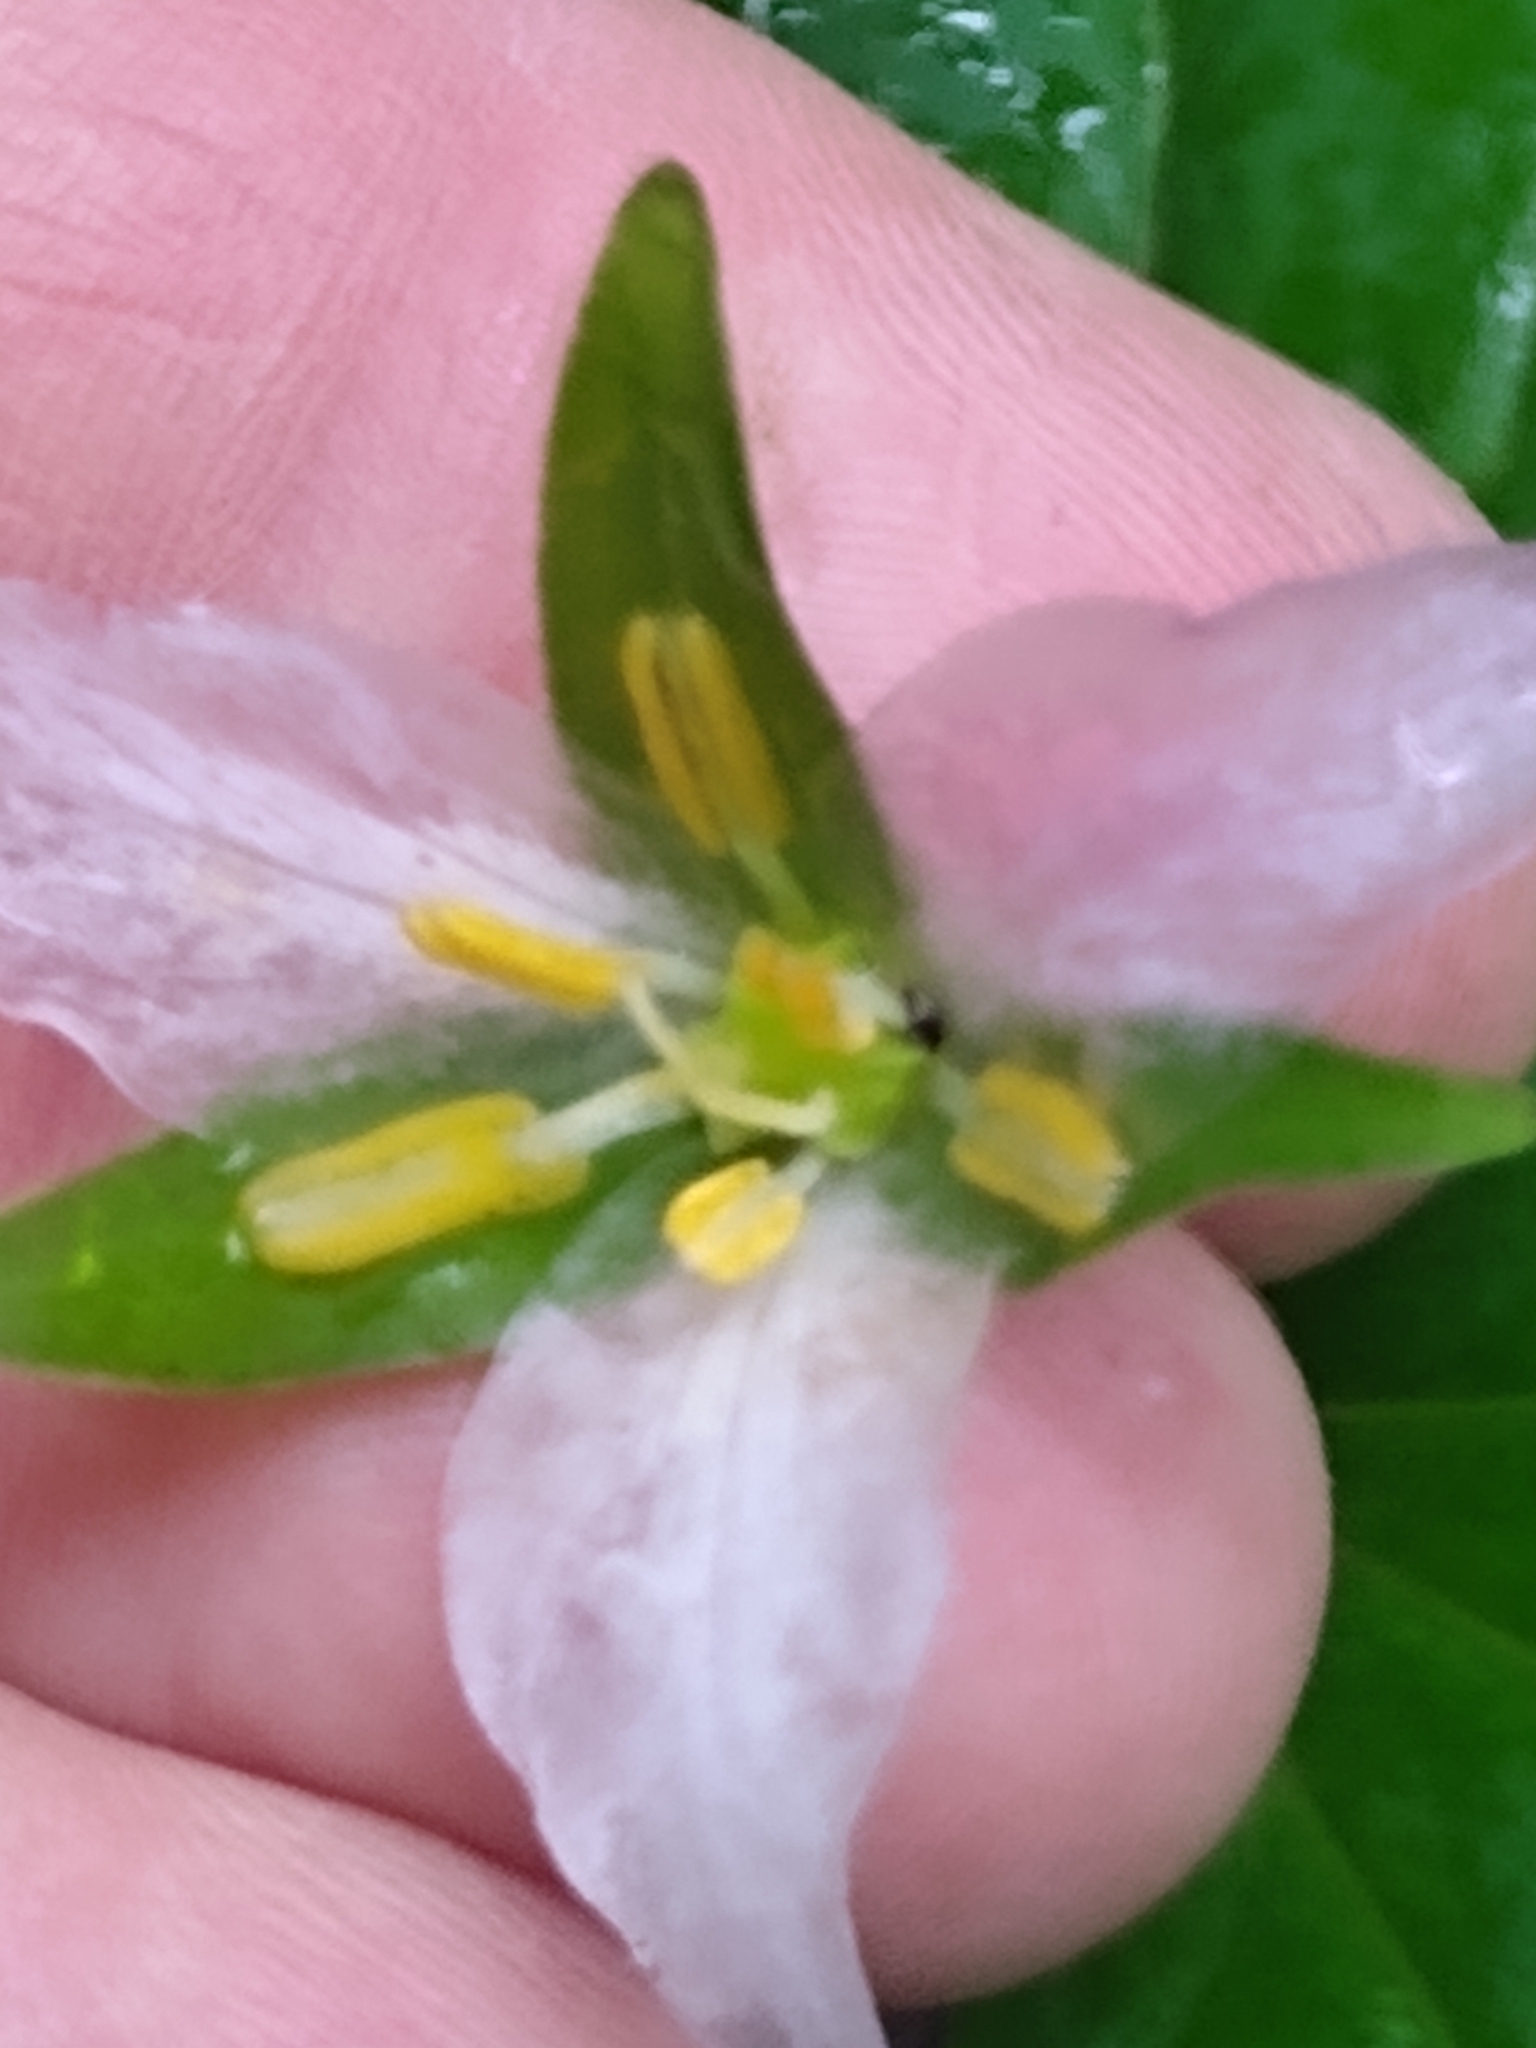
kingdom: Plantae
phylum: Tracheophyta
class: Liliopsida
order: Liliales
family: Melanthiaceae
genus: Trillium
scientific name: Trillium ovatum
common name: Pacific trillium
